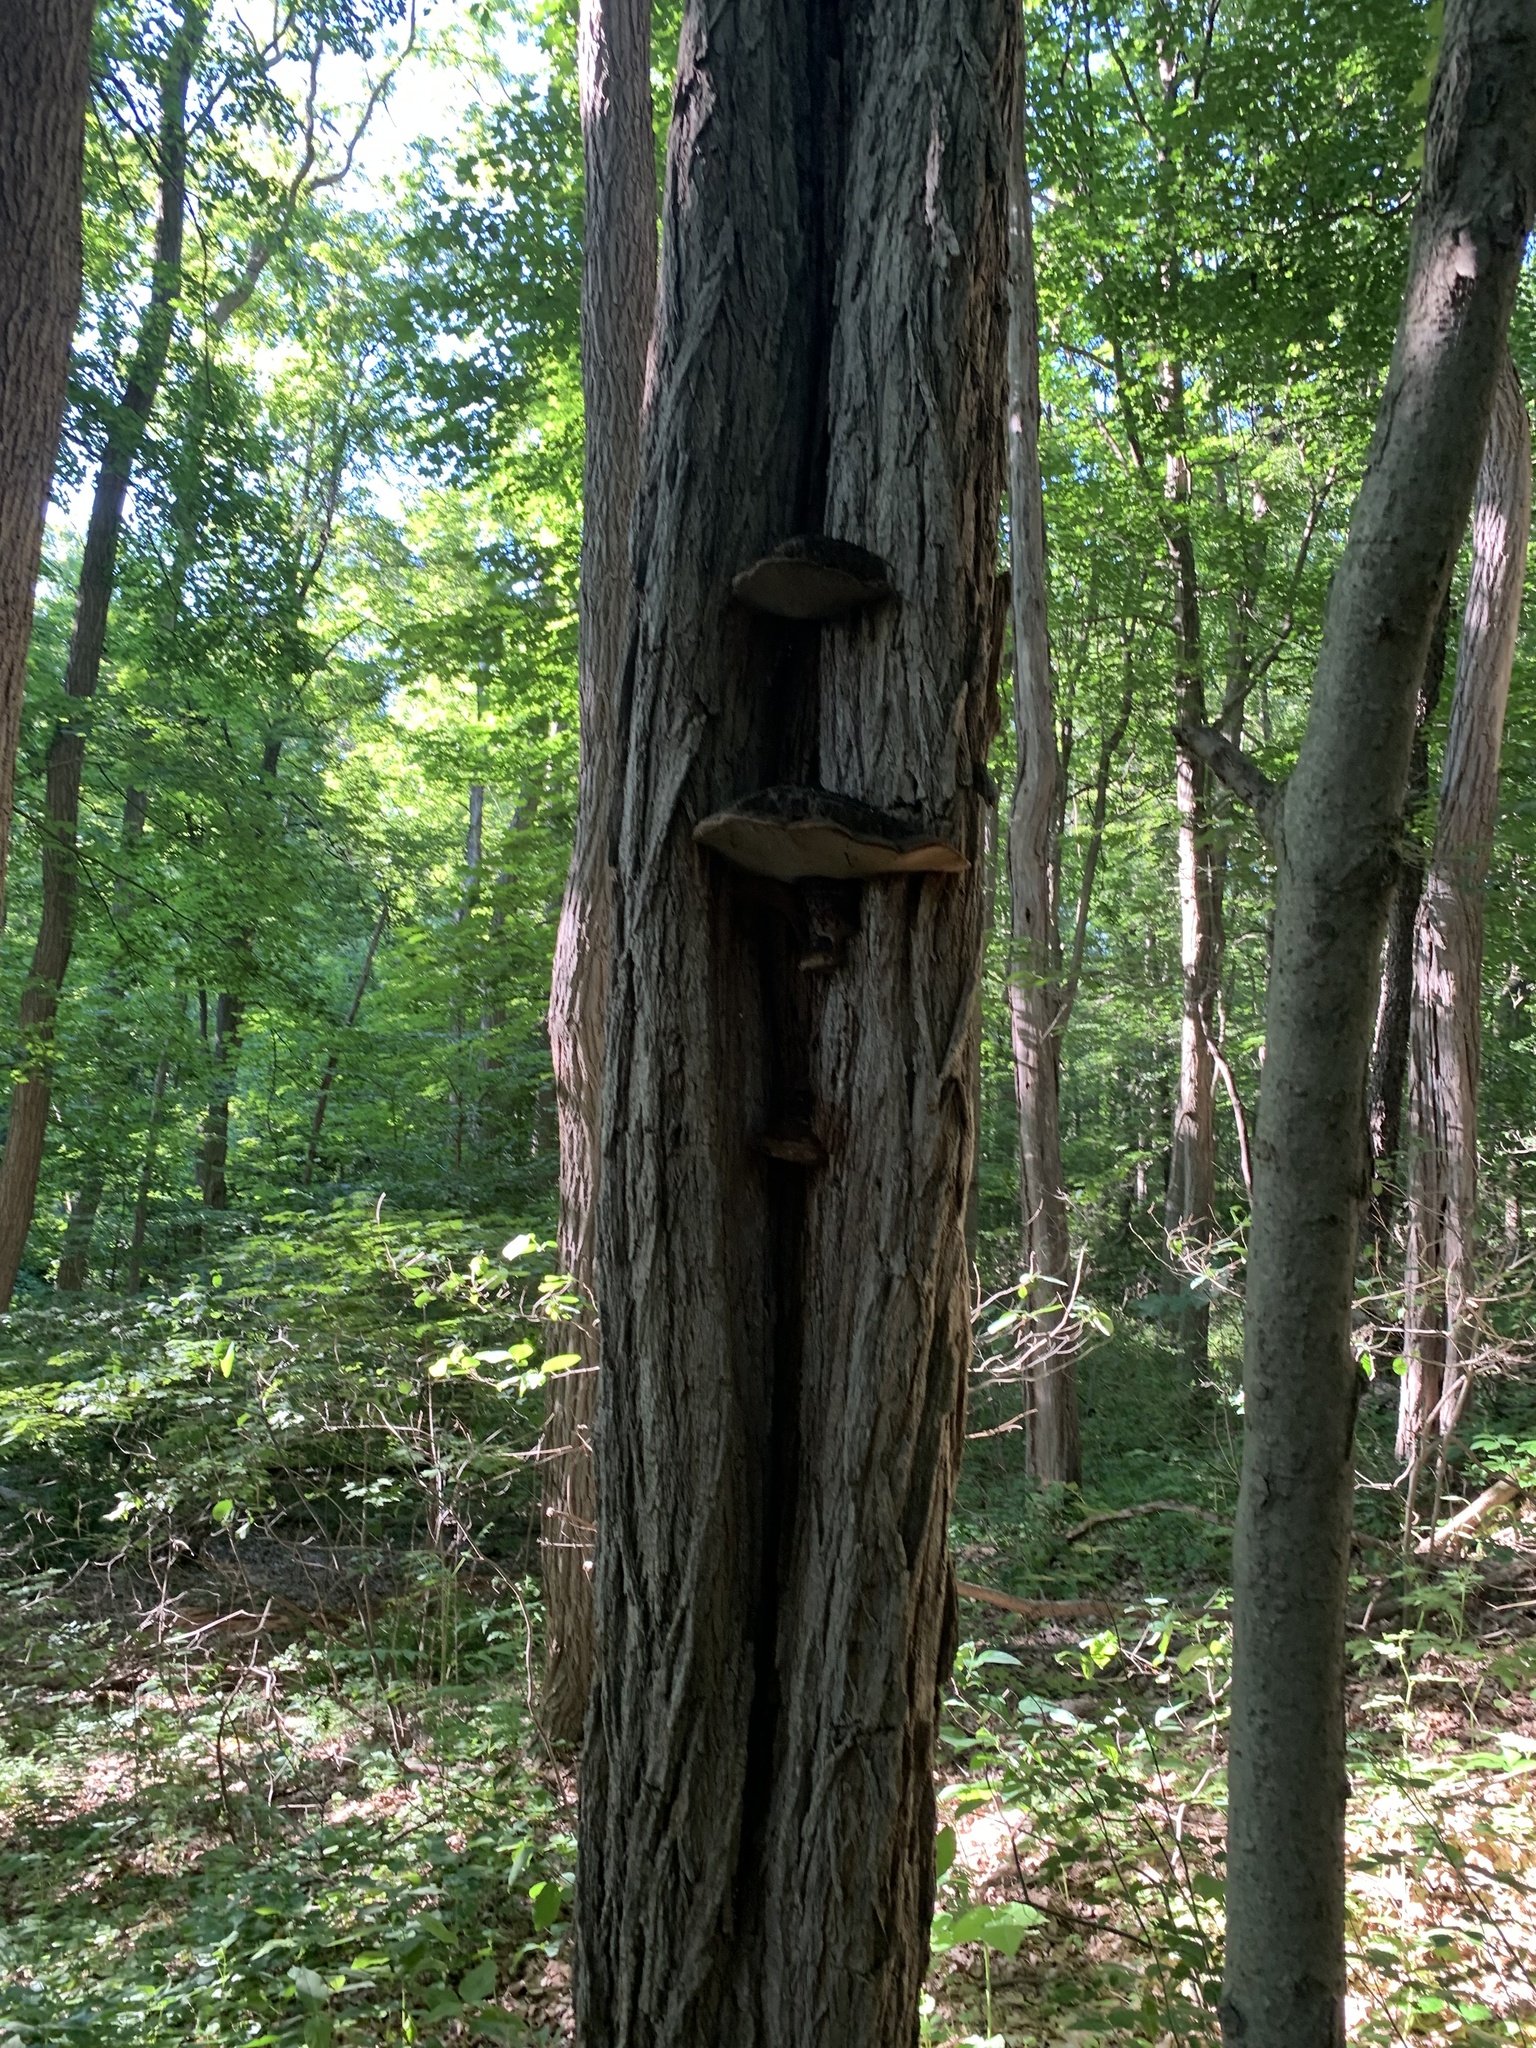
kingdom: Fungi
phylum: Basidiomycota
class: Agaricomycetes
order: Hymenochaetales
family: Hymenochaetaceae
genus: Phellinus
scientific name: Phellinus robiniae
